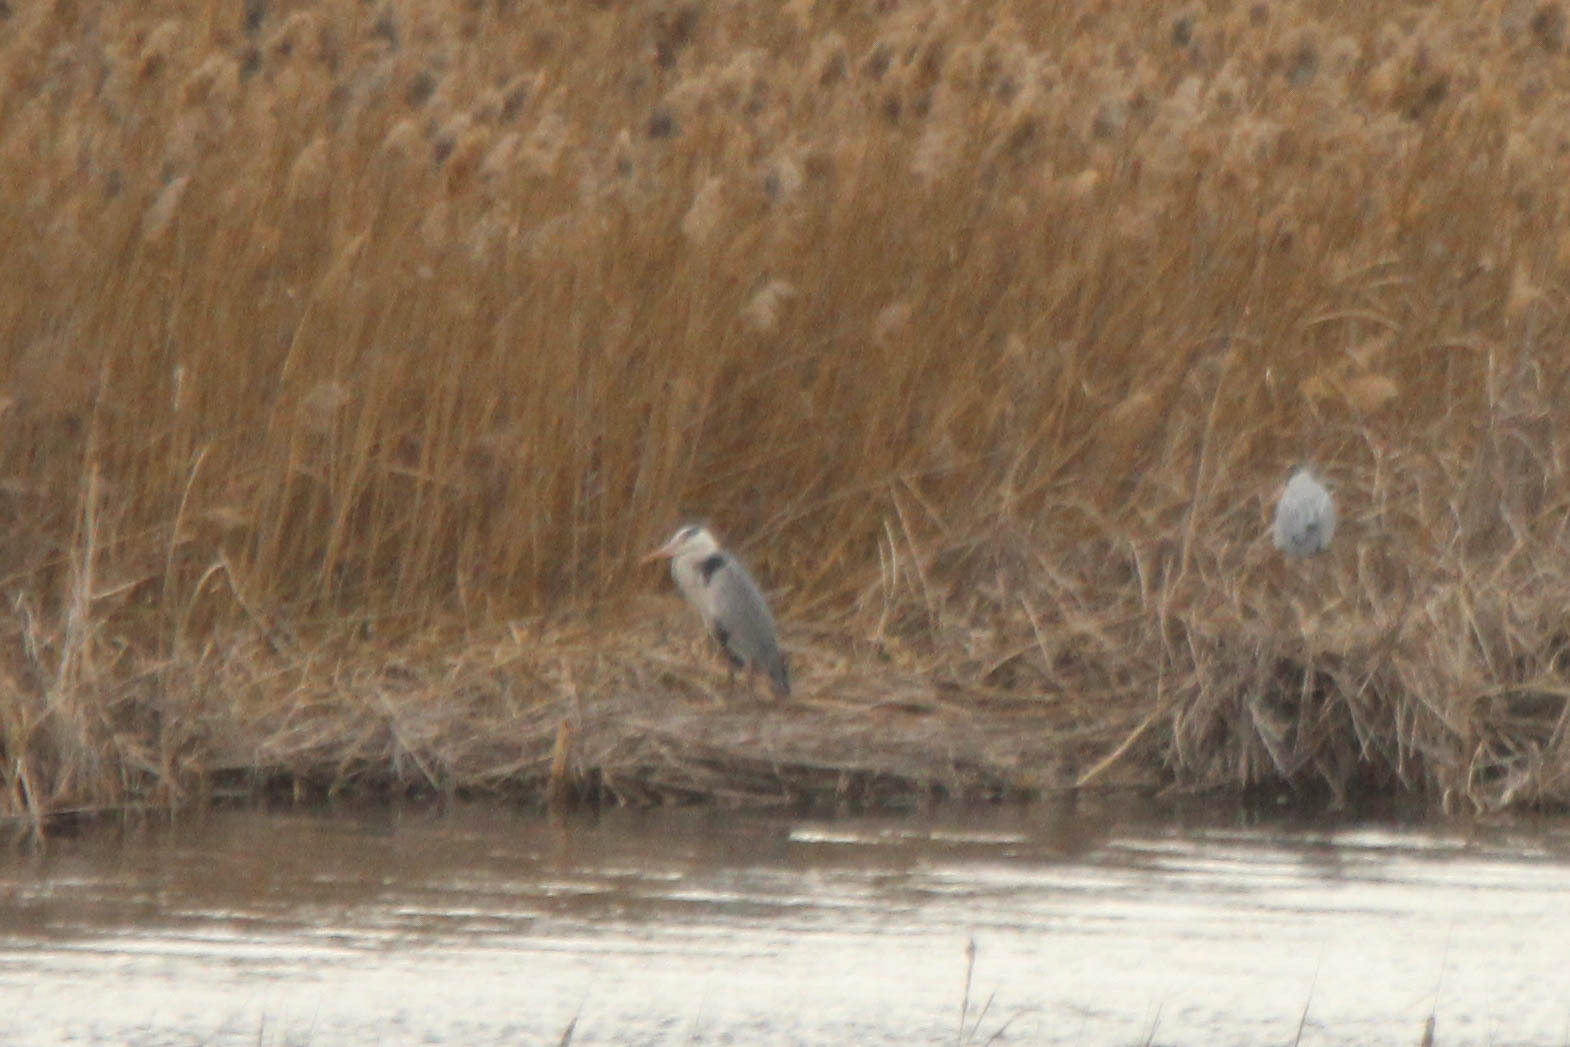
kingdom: Animalia
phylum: Chordata
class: Aves
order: Pelecaniformes
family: Ardeidae
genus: Ardea
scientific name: Ardea cinerea
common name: Grey heron
